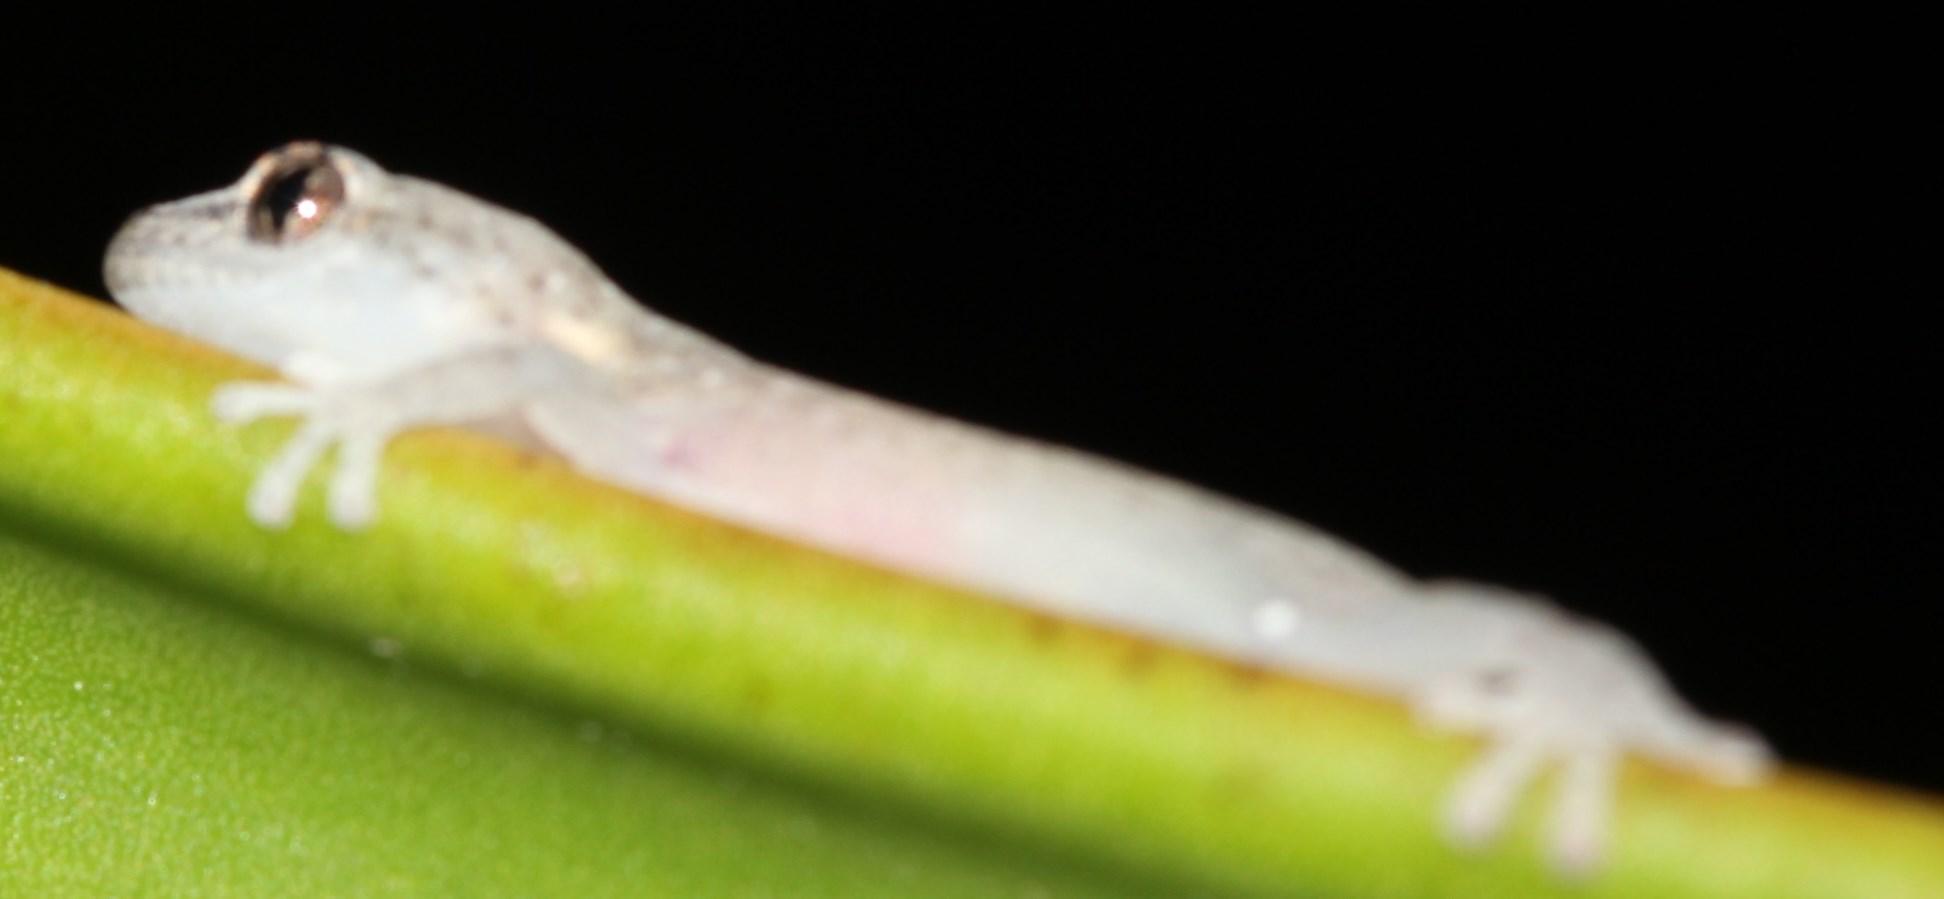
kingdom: Animalia
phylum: Chordata
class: Squamata
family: Gekkonidae
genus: Afrogecko
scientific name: Afrogecko porphyreus
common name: Marbled leaf-toed gecko
